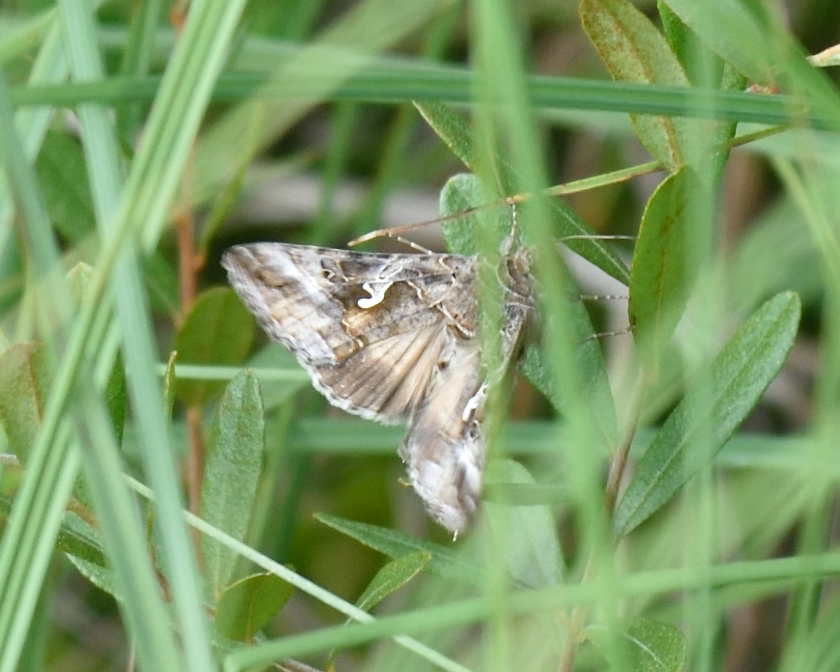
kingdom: Animalia
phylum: Arthropoda
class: Insecta
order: Lepidoptera
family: Noctuidae
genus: Autographa
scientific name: Autographa gamma
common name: Silver y
